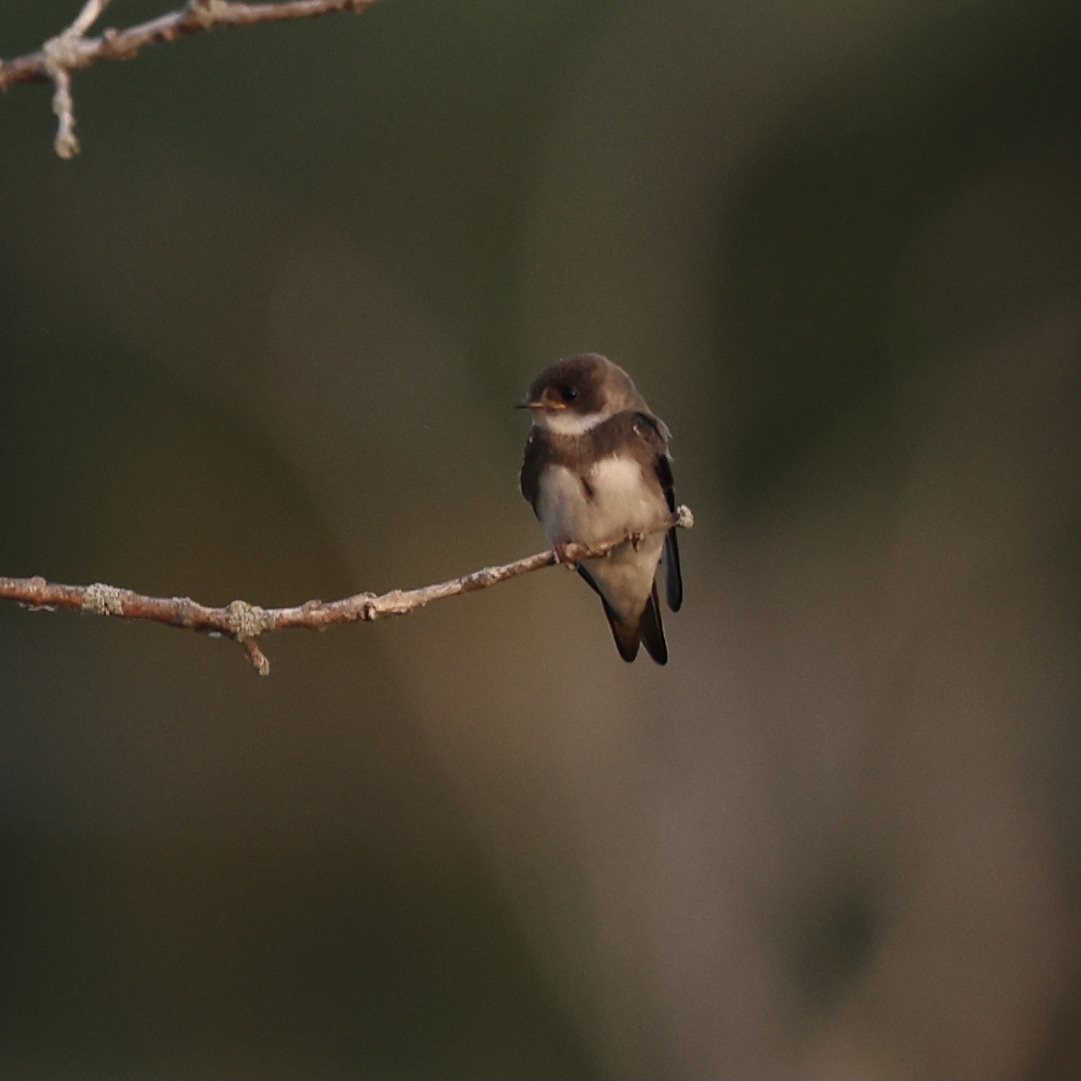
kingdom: Animalia
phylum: Chordata
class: Aves
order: Passeriformes
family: Hirundinidae
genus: Riparia
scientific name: Riparia riparia
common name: Sand martin
